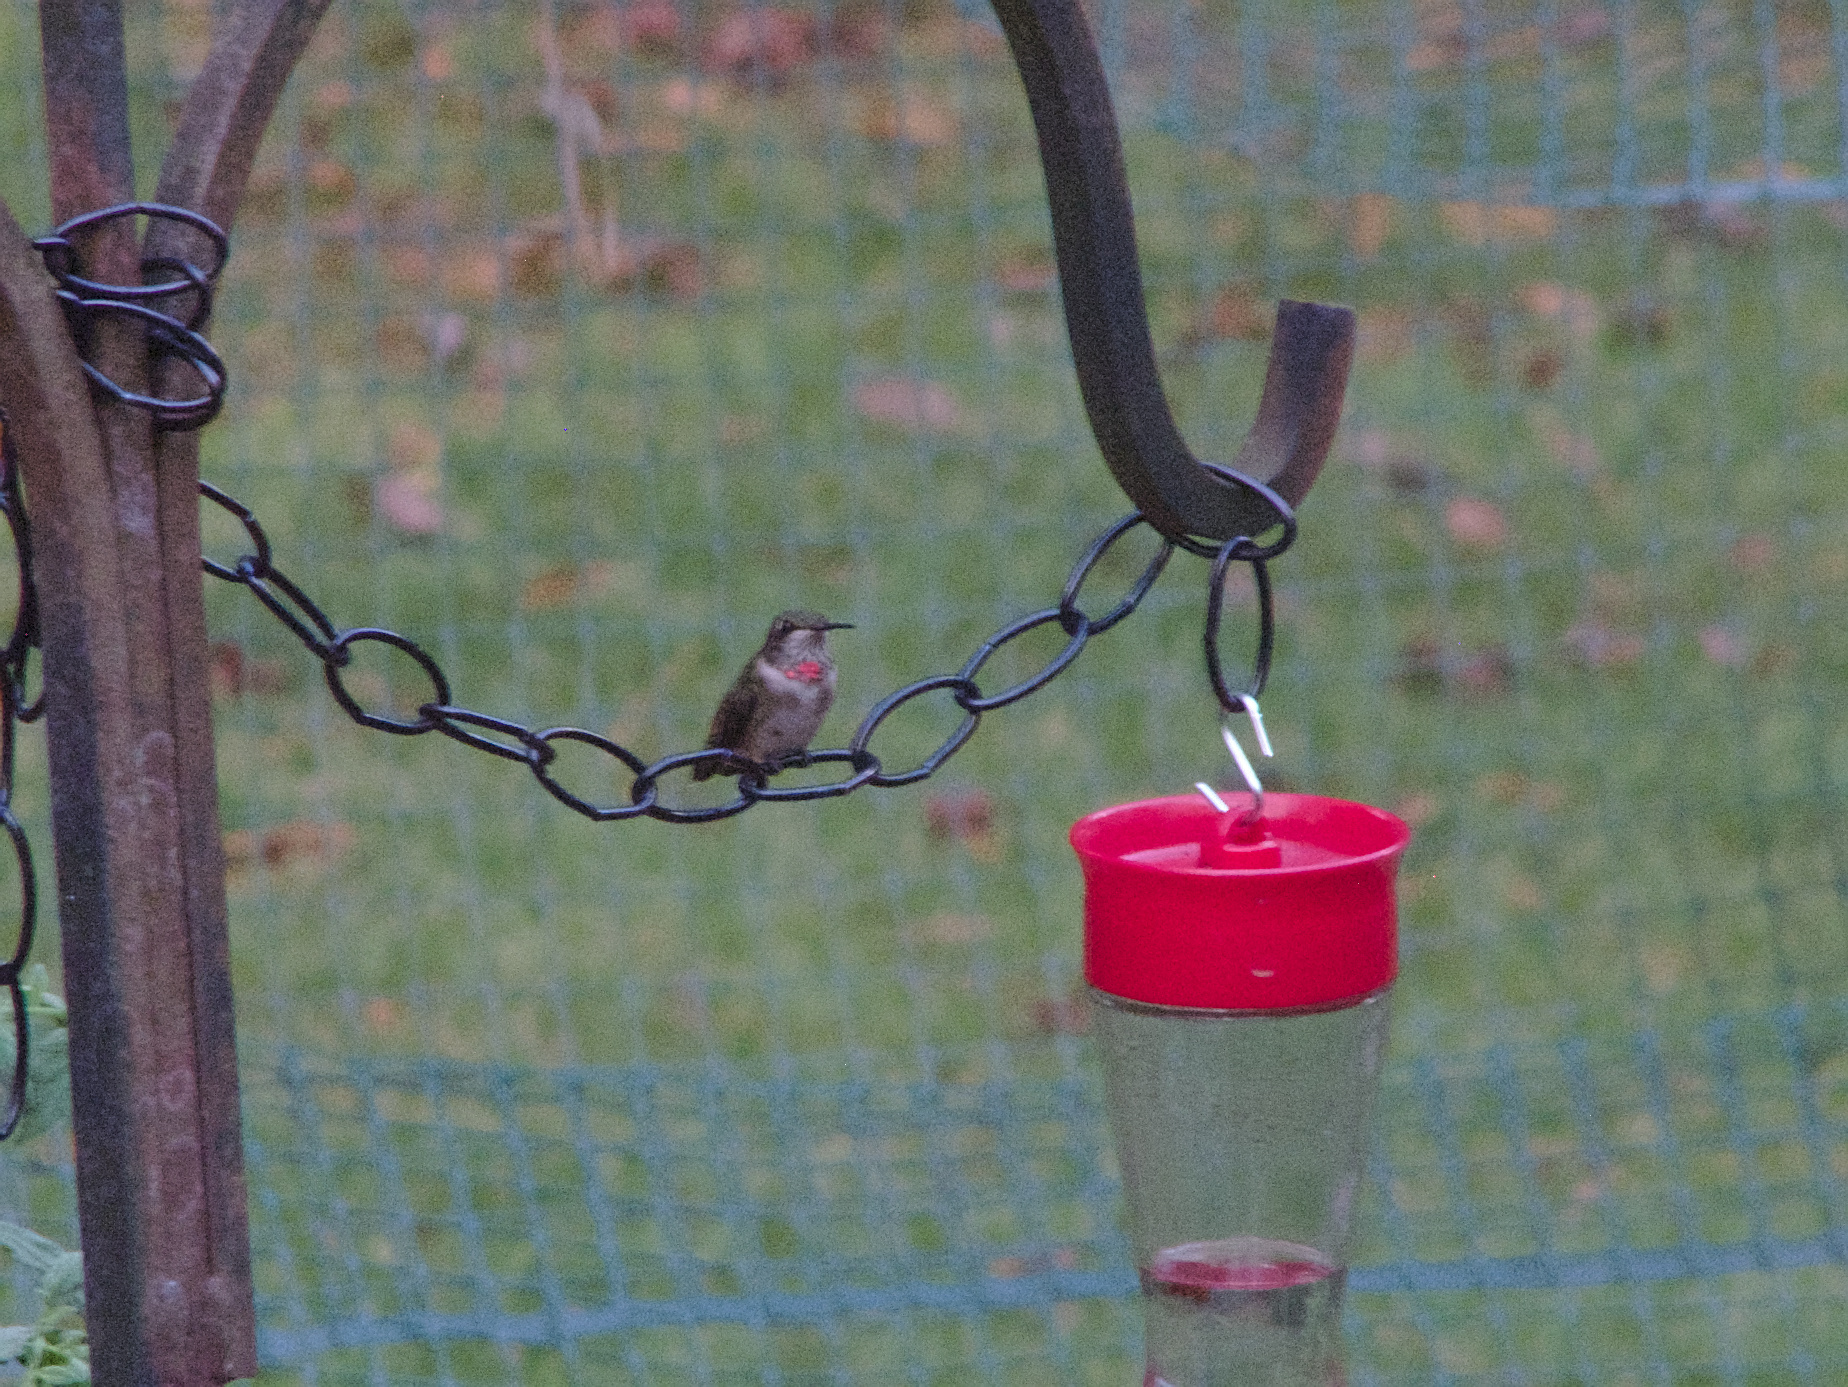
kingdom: Animalia
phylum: Chordata
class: Aves
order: Apodiformes
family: Trochilidae
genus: Archilochus
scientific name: Archilochus colubris
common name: Ruby-throated hummingbird
